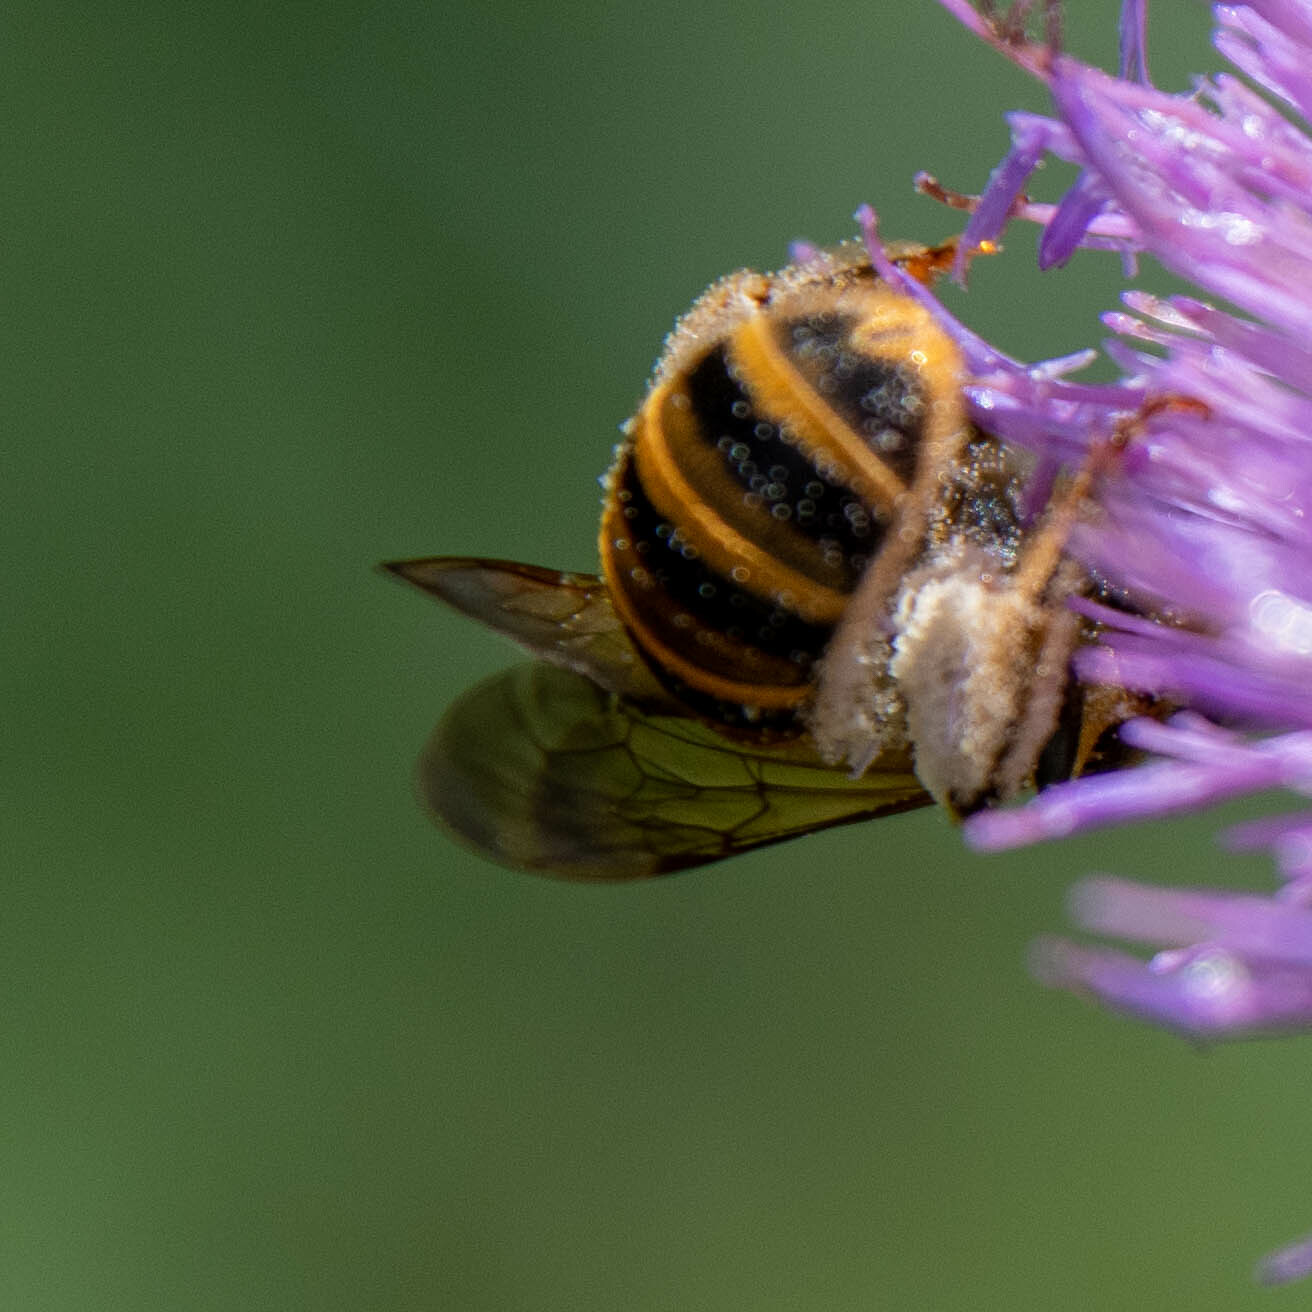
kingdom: Animalia
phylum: Arthropoda
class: Insecta
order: Hymenoptera
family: Halictidae
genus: Halictus
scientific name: Halictus scabiosae
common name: Great banded furrow bee
